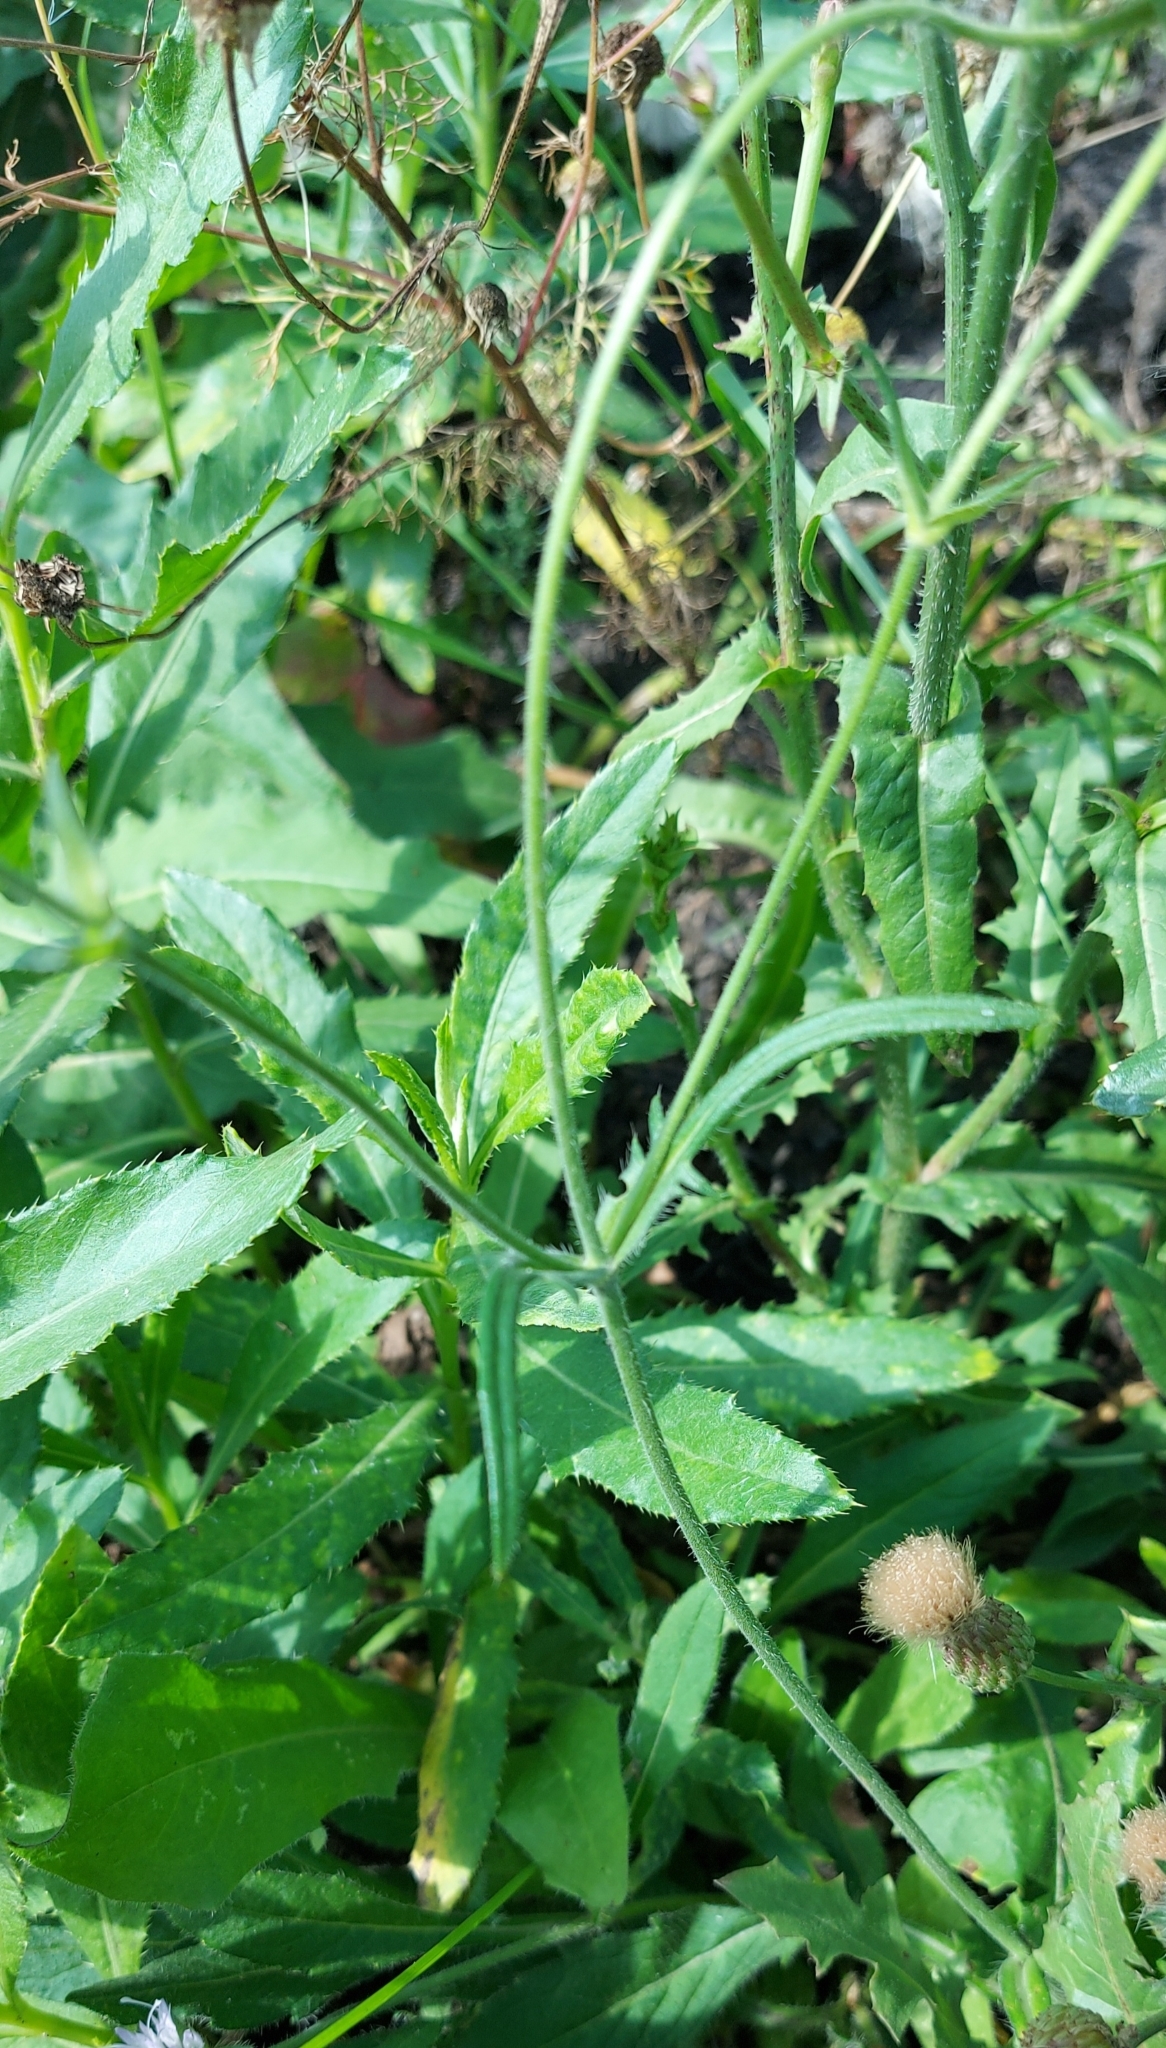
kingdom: Plantae
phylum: Tracheophyta
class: Magnoliopsida
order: Dipsacales
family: Caprifoliaceae
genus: Knautia
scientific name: Knautia arvensis
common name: Field scabiosa
